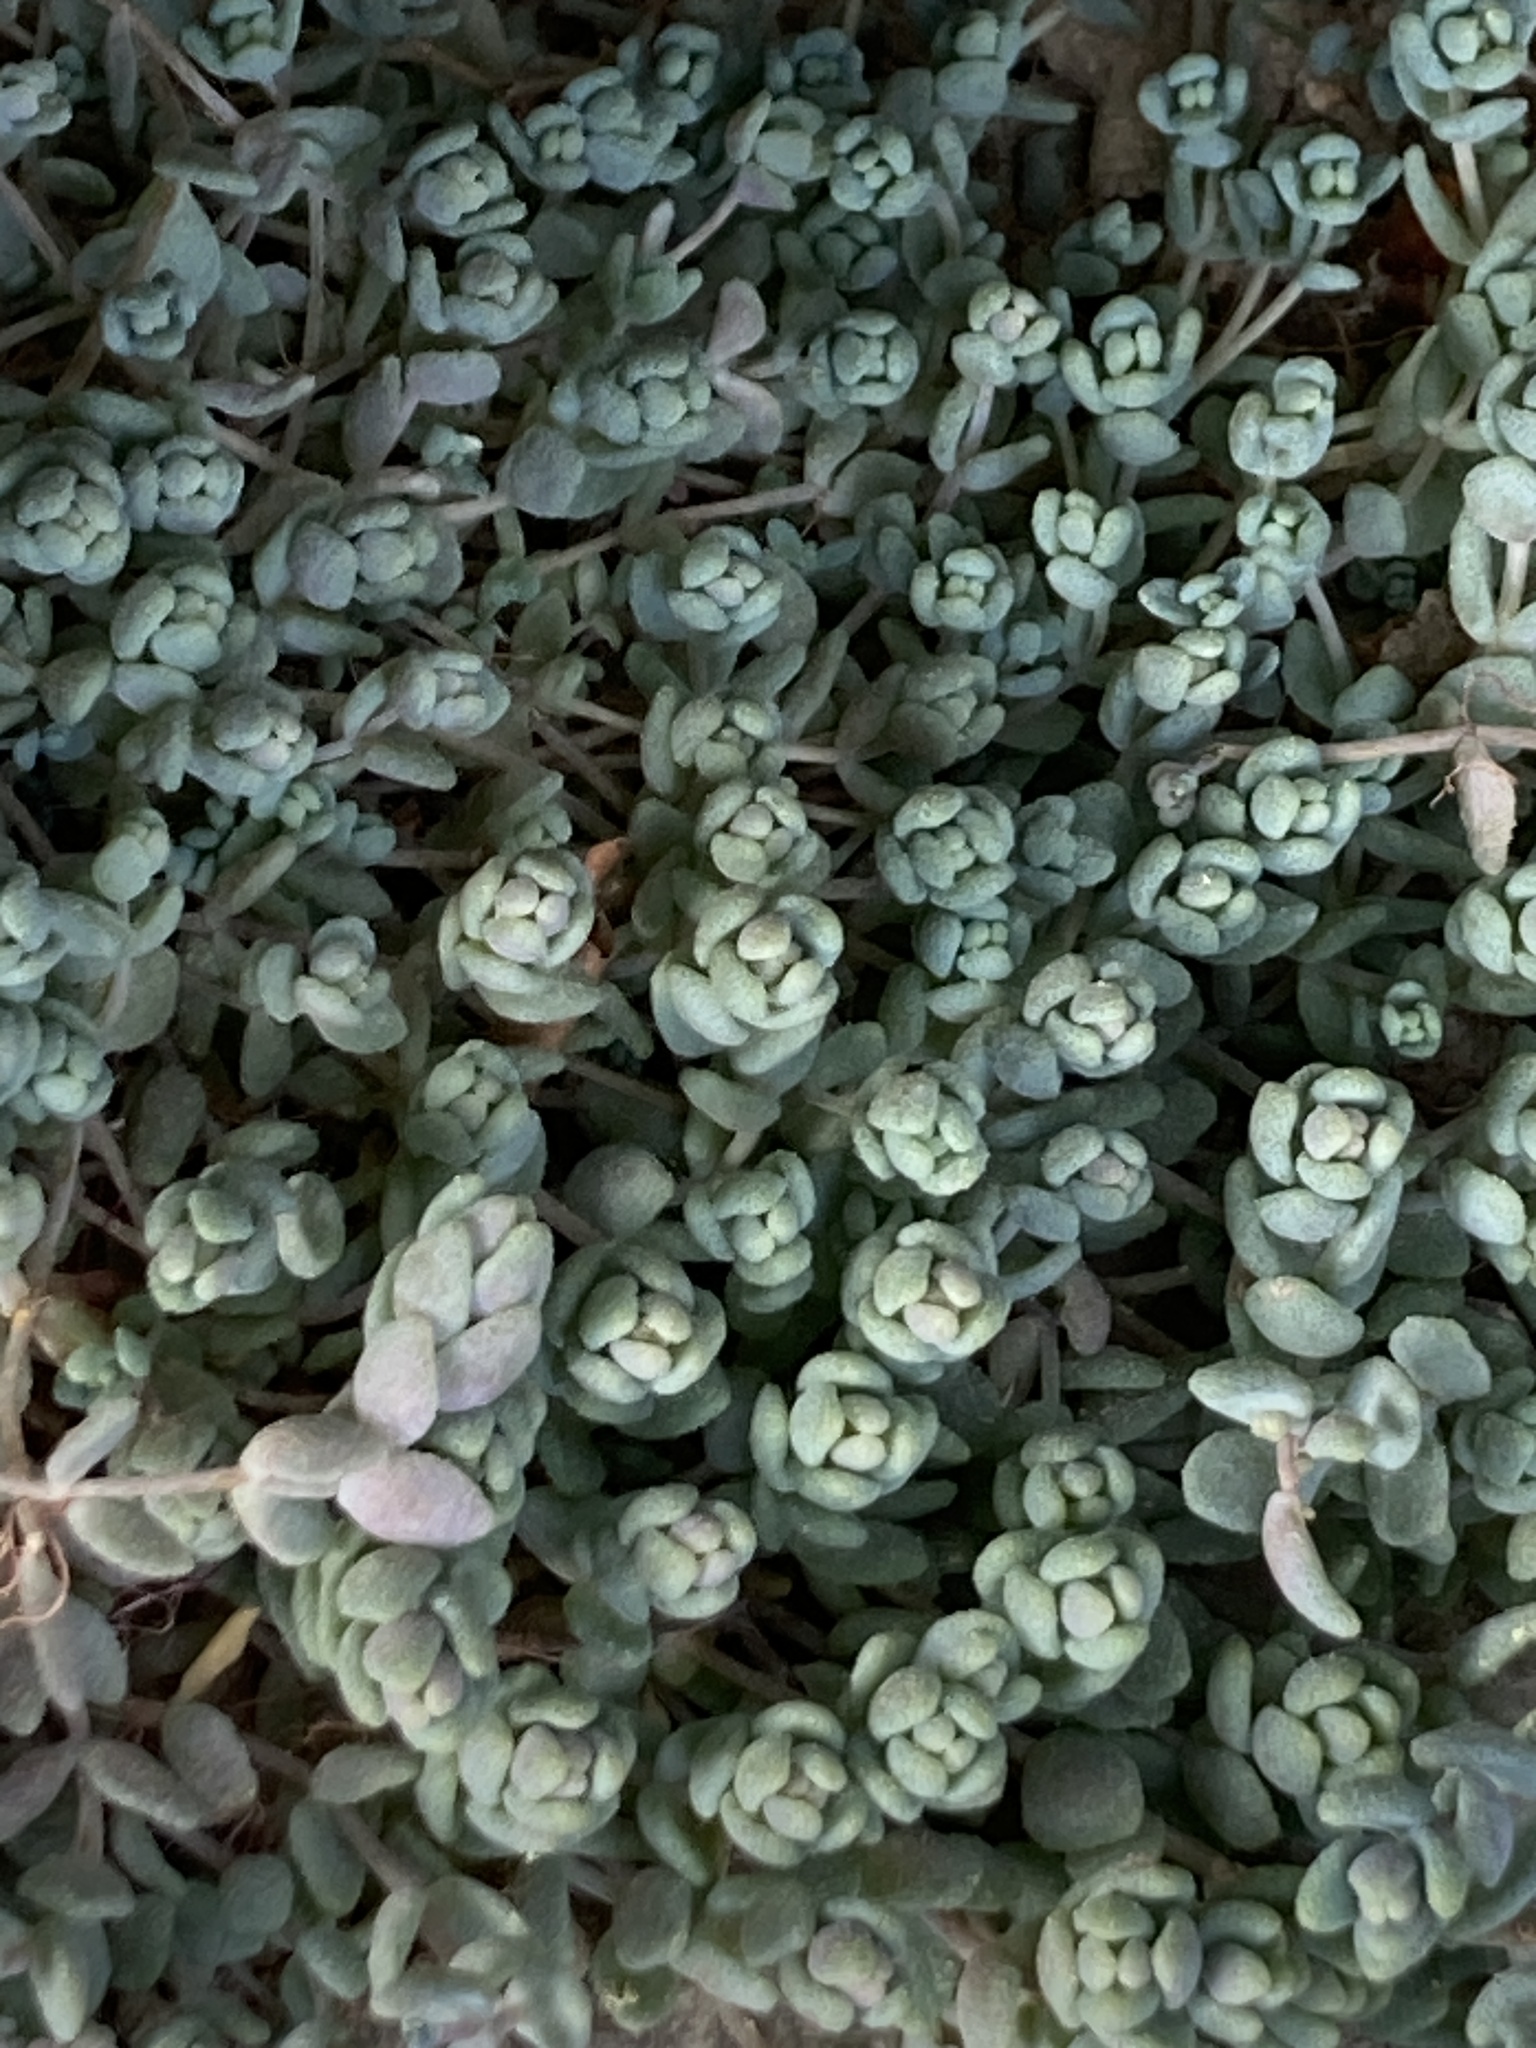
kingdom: Plantae
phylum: Tracheophyta
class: Magnoliopsida
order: Saxifragales
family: Crassulaceae
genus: Sedum
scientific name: Sedum dasyphyllum
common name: Thick-leaf stonecrop
